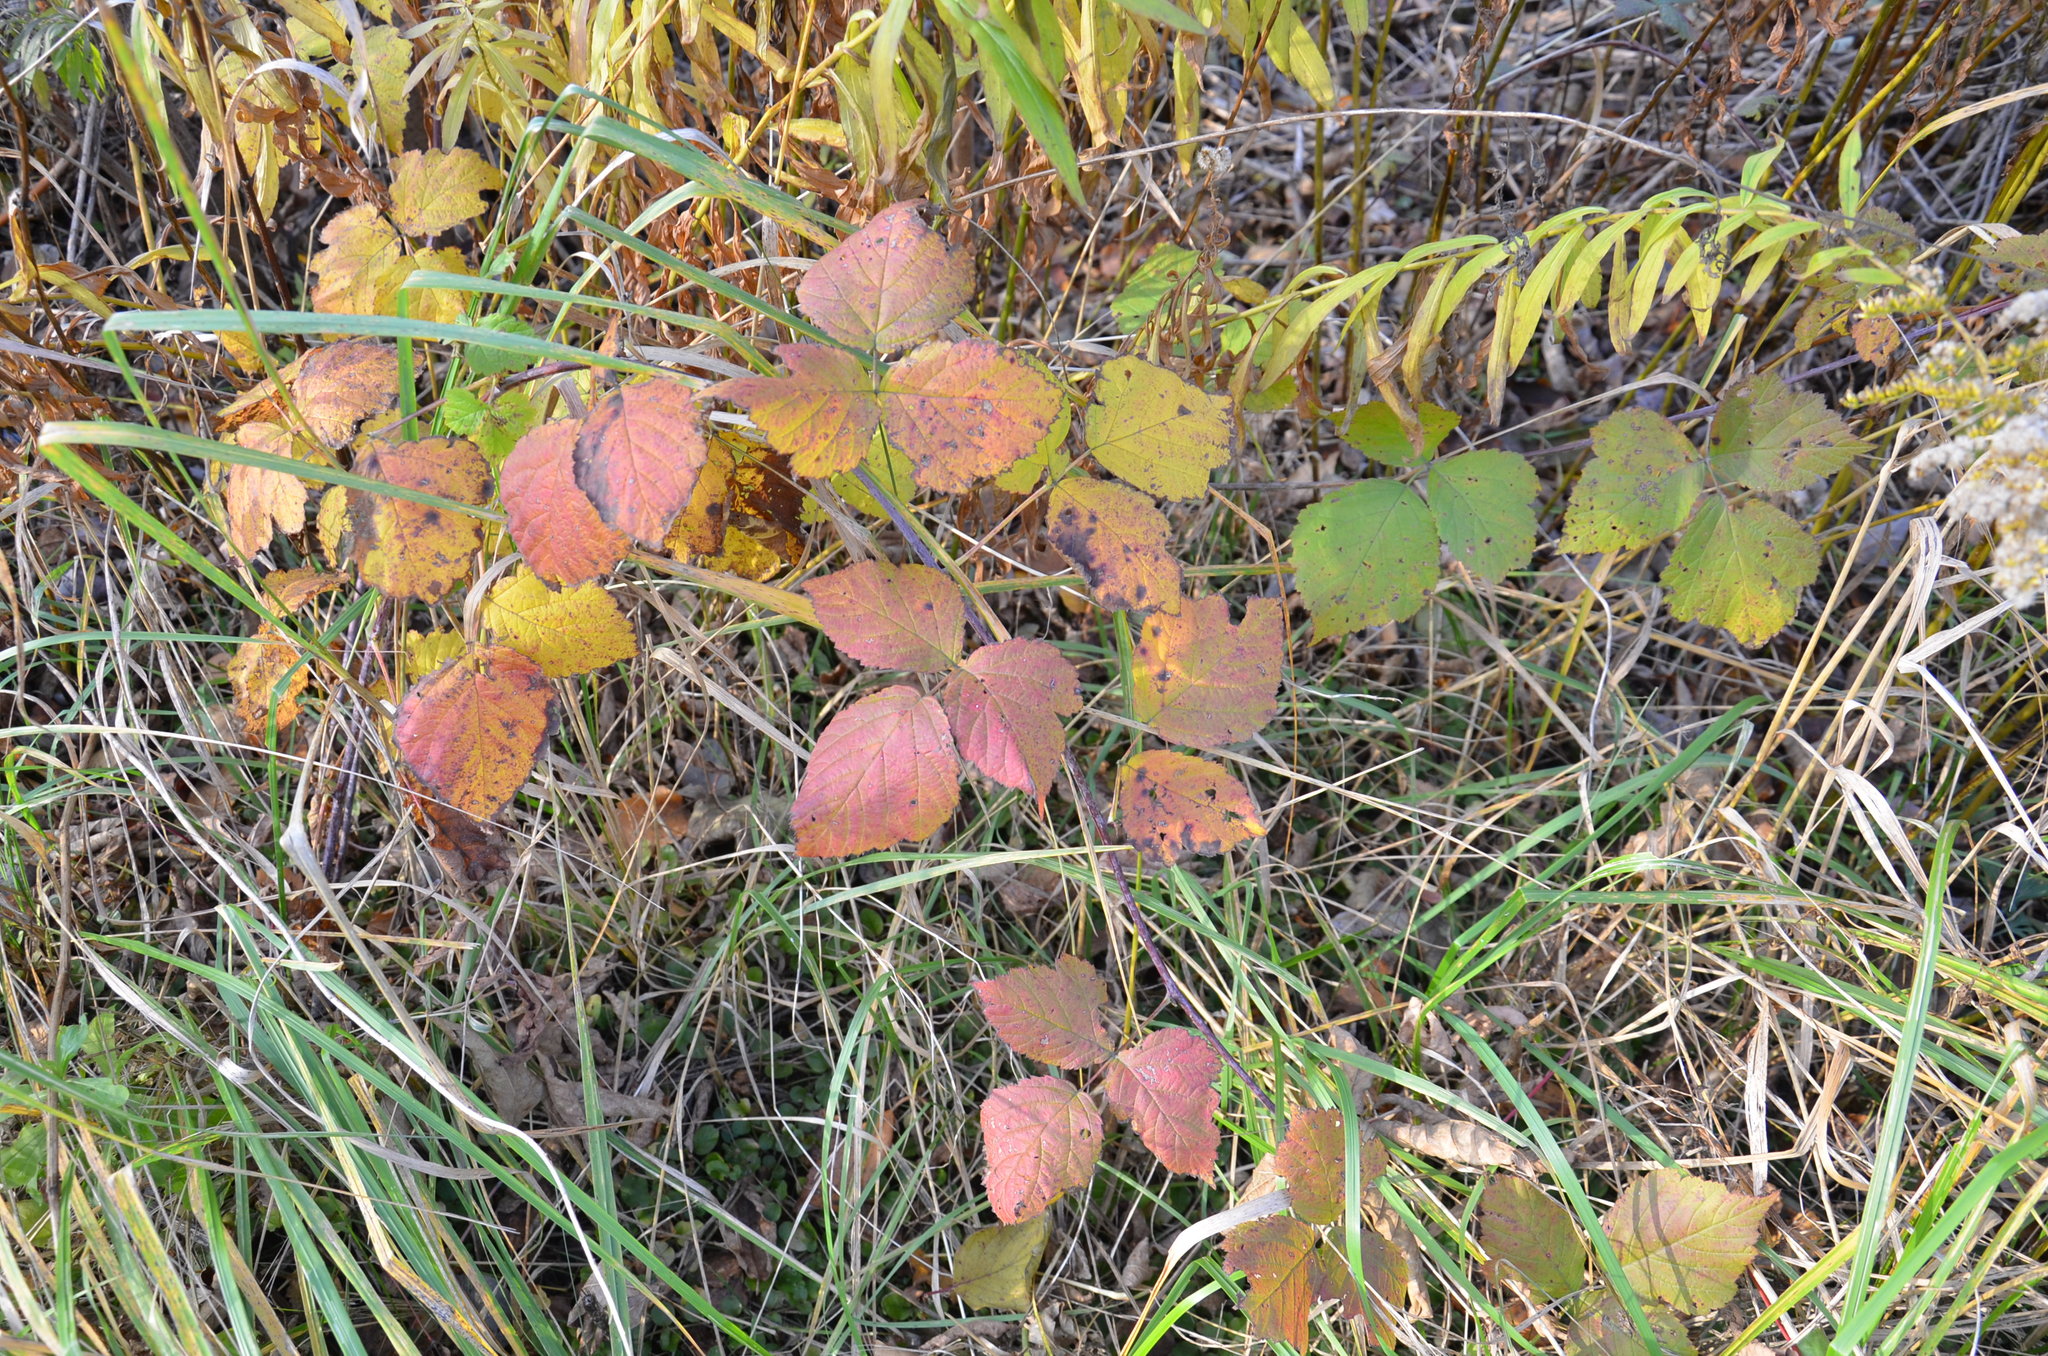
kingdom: Plantae
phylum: Tracheophyta
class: Magnoliopsida
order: Rosales
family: Rosaceae
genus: Rubus
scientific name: Rubus caesius
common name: Dewberry
